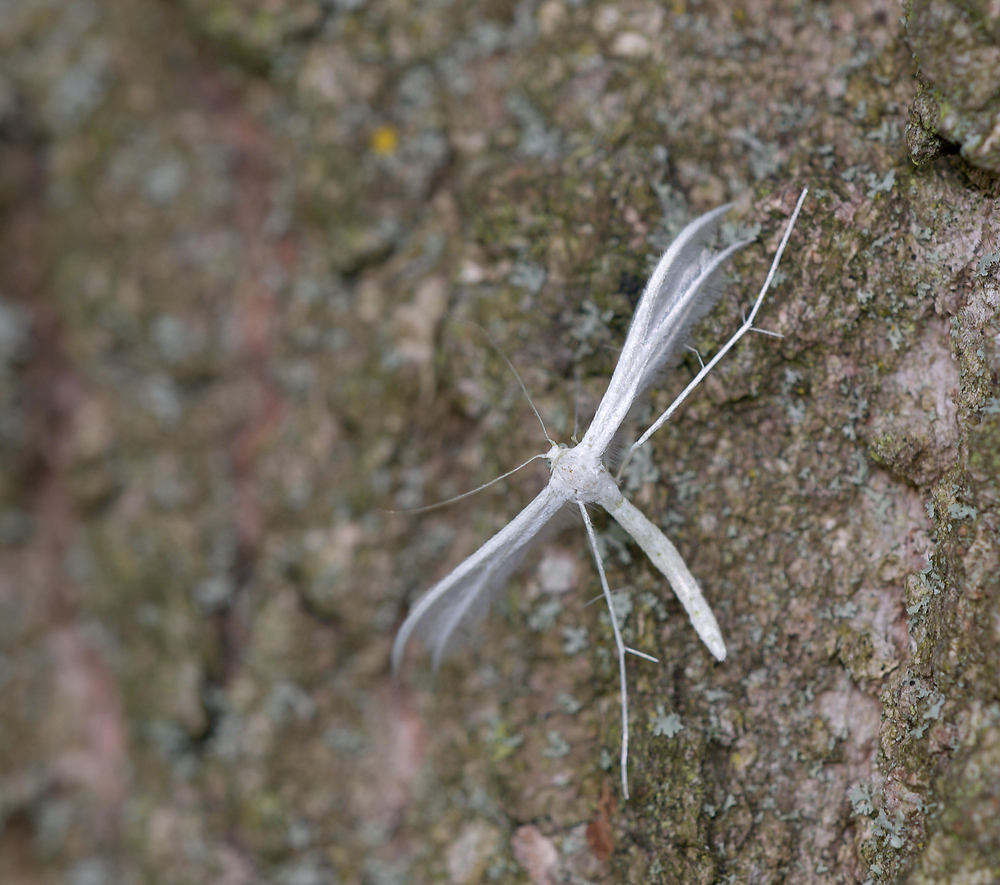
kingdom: Animalia
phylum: Arthropoda
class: Insecta
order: Lepidoptera
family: Pterophoridae
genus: Pterophorus
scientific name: Pterophorus pentadactyla
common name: White plume moth
